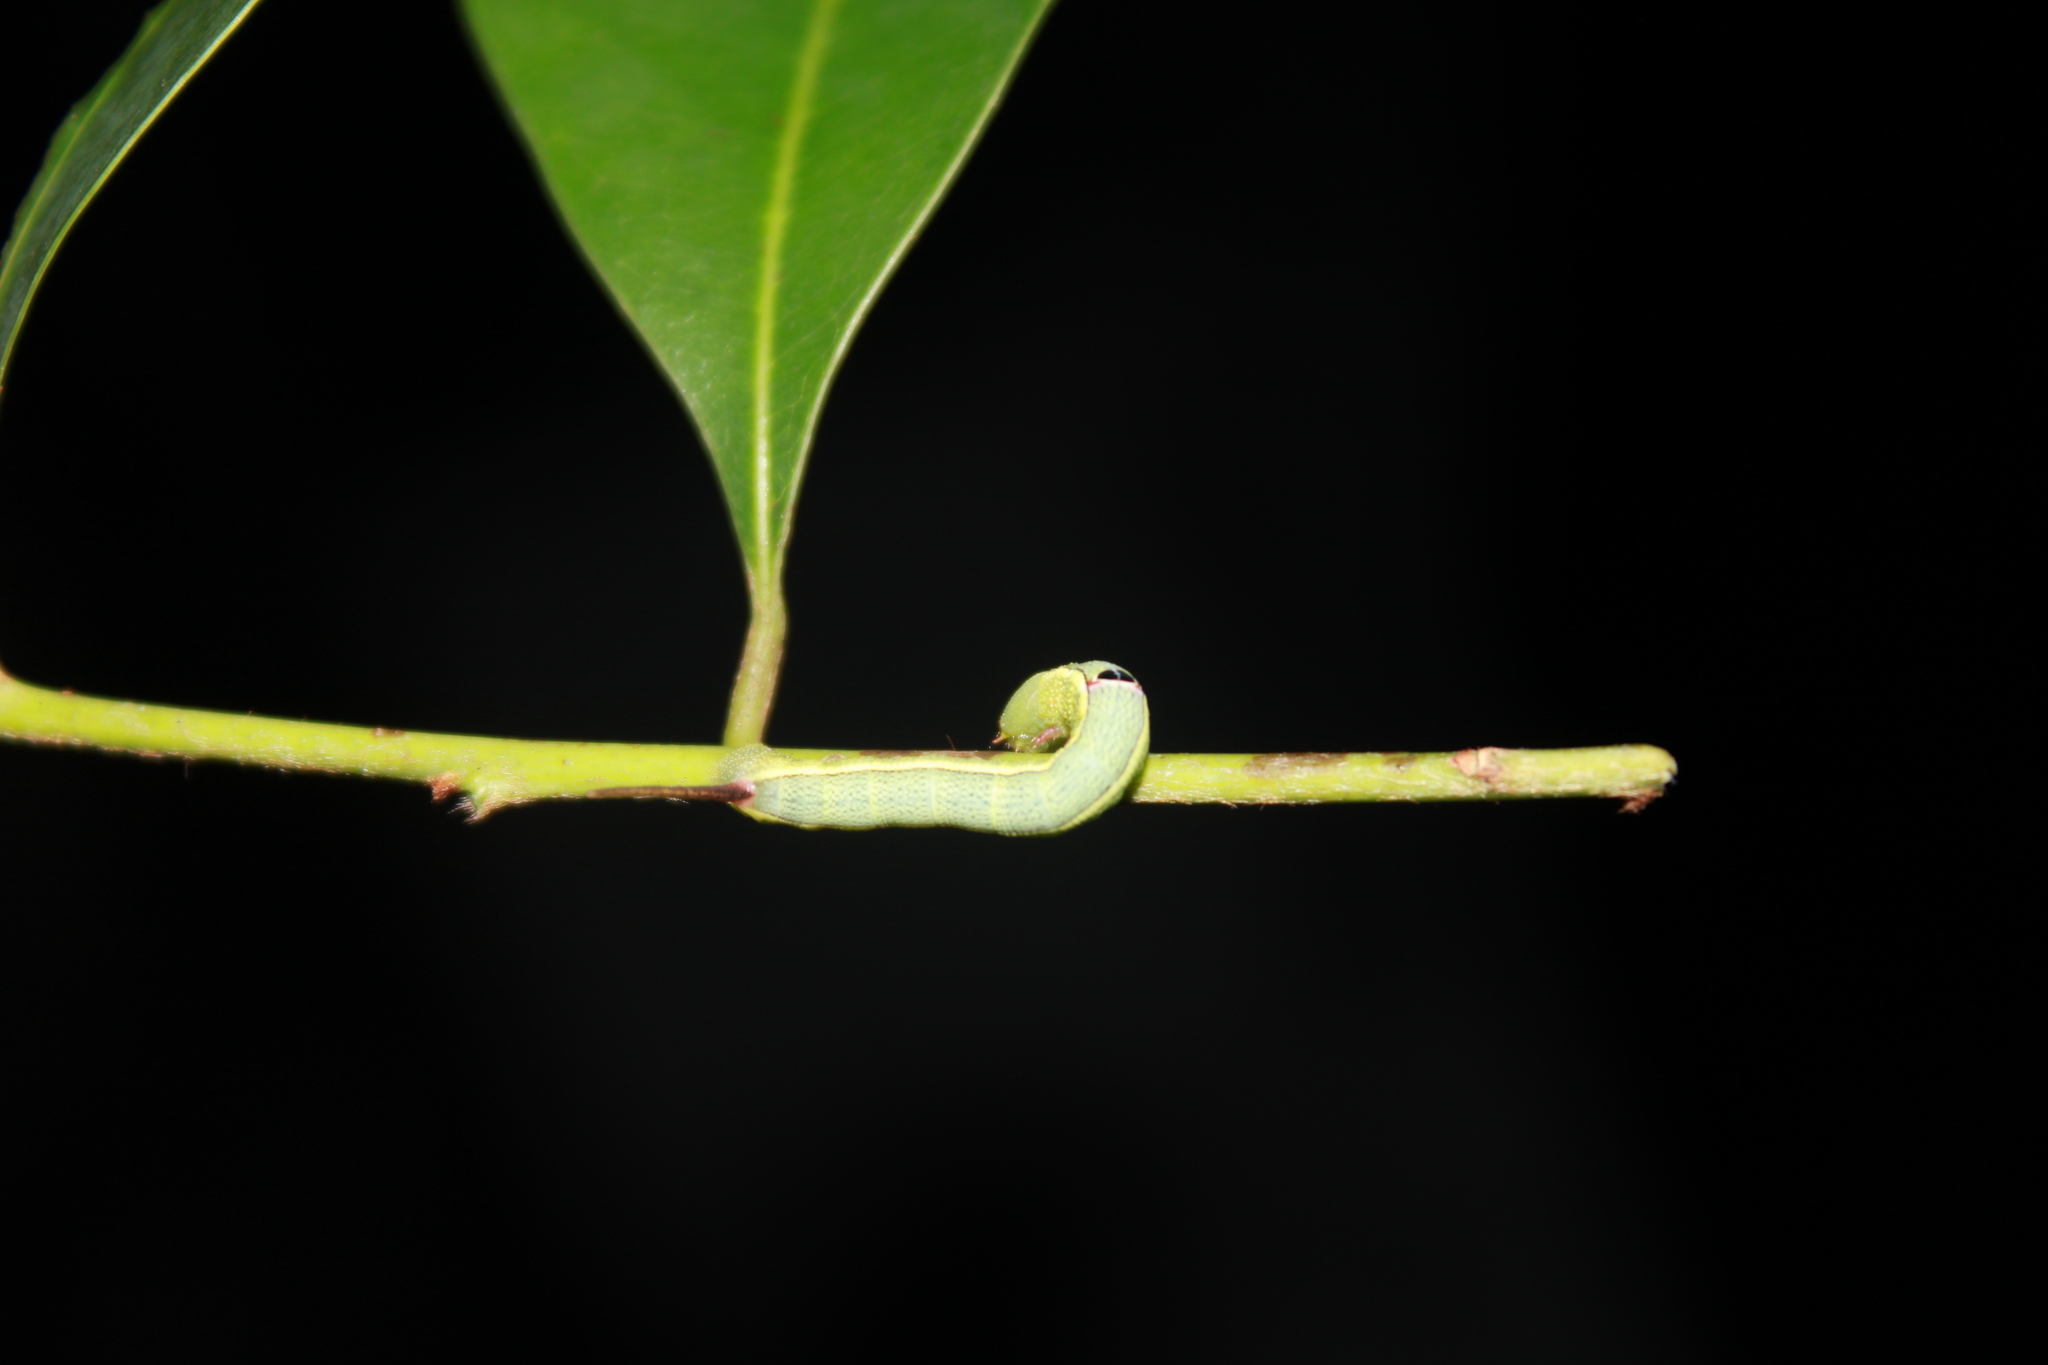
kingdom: Animalia
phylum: Arthropoda
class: Insecta
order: Lepidoptera
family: Sphingidae
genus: Erinnyis
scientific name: Erinnyis ello
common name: Ello sphinx
